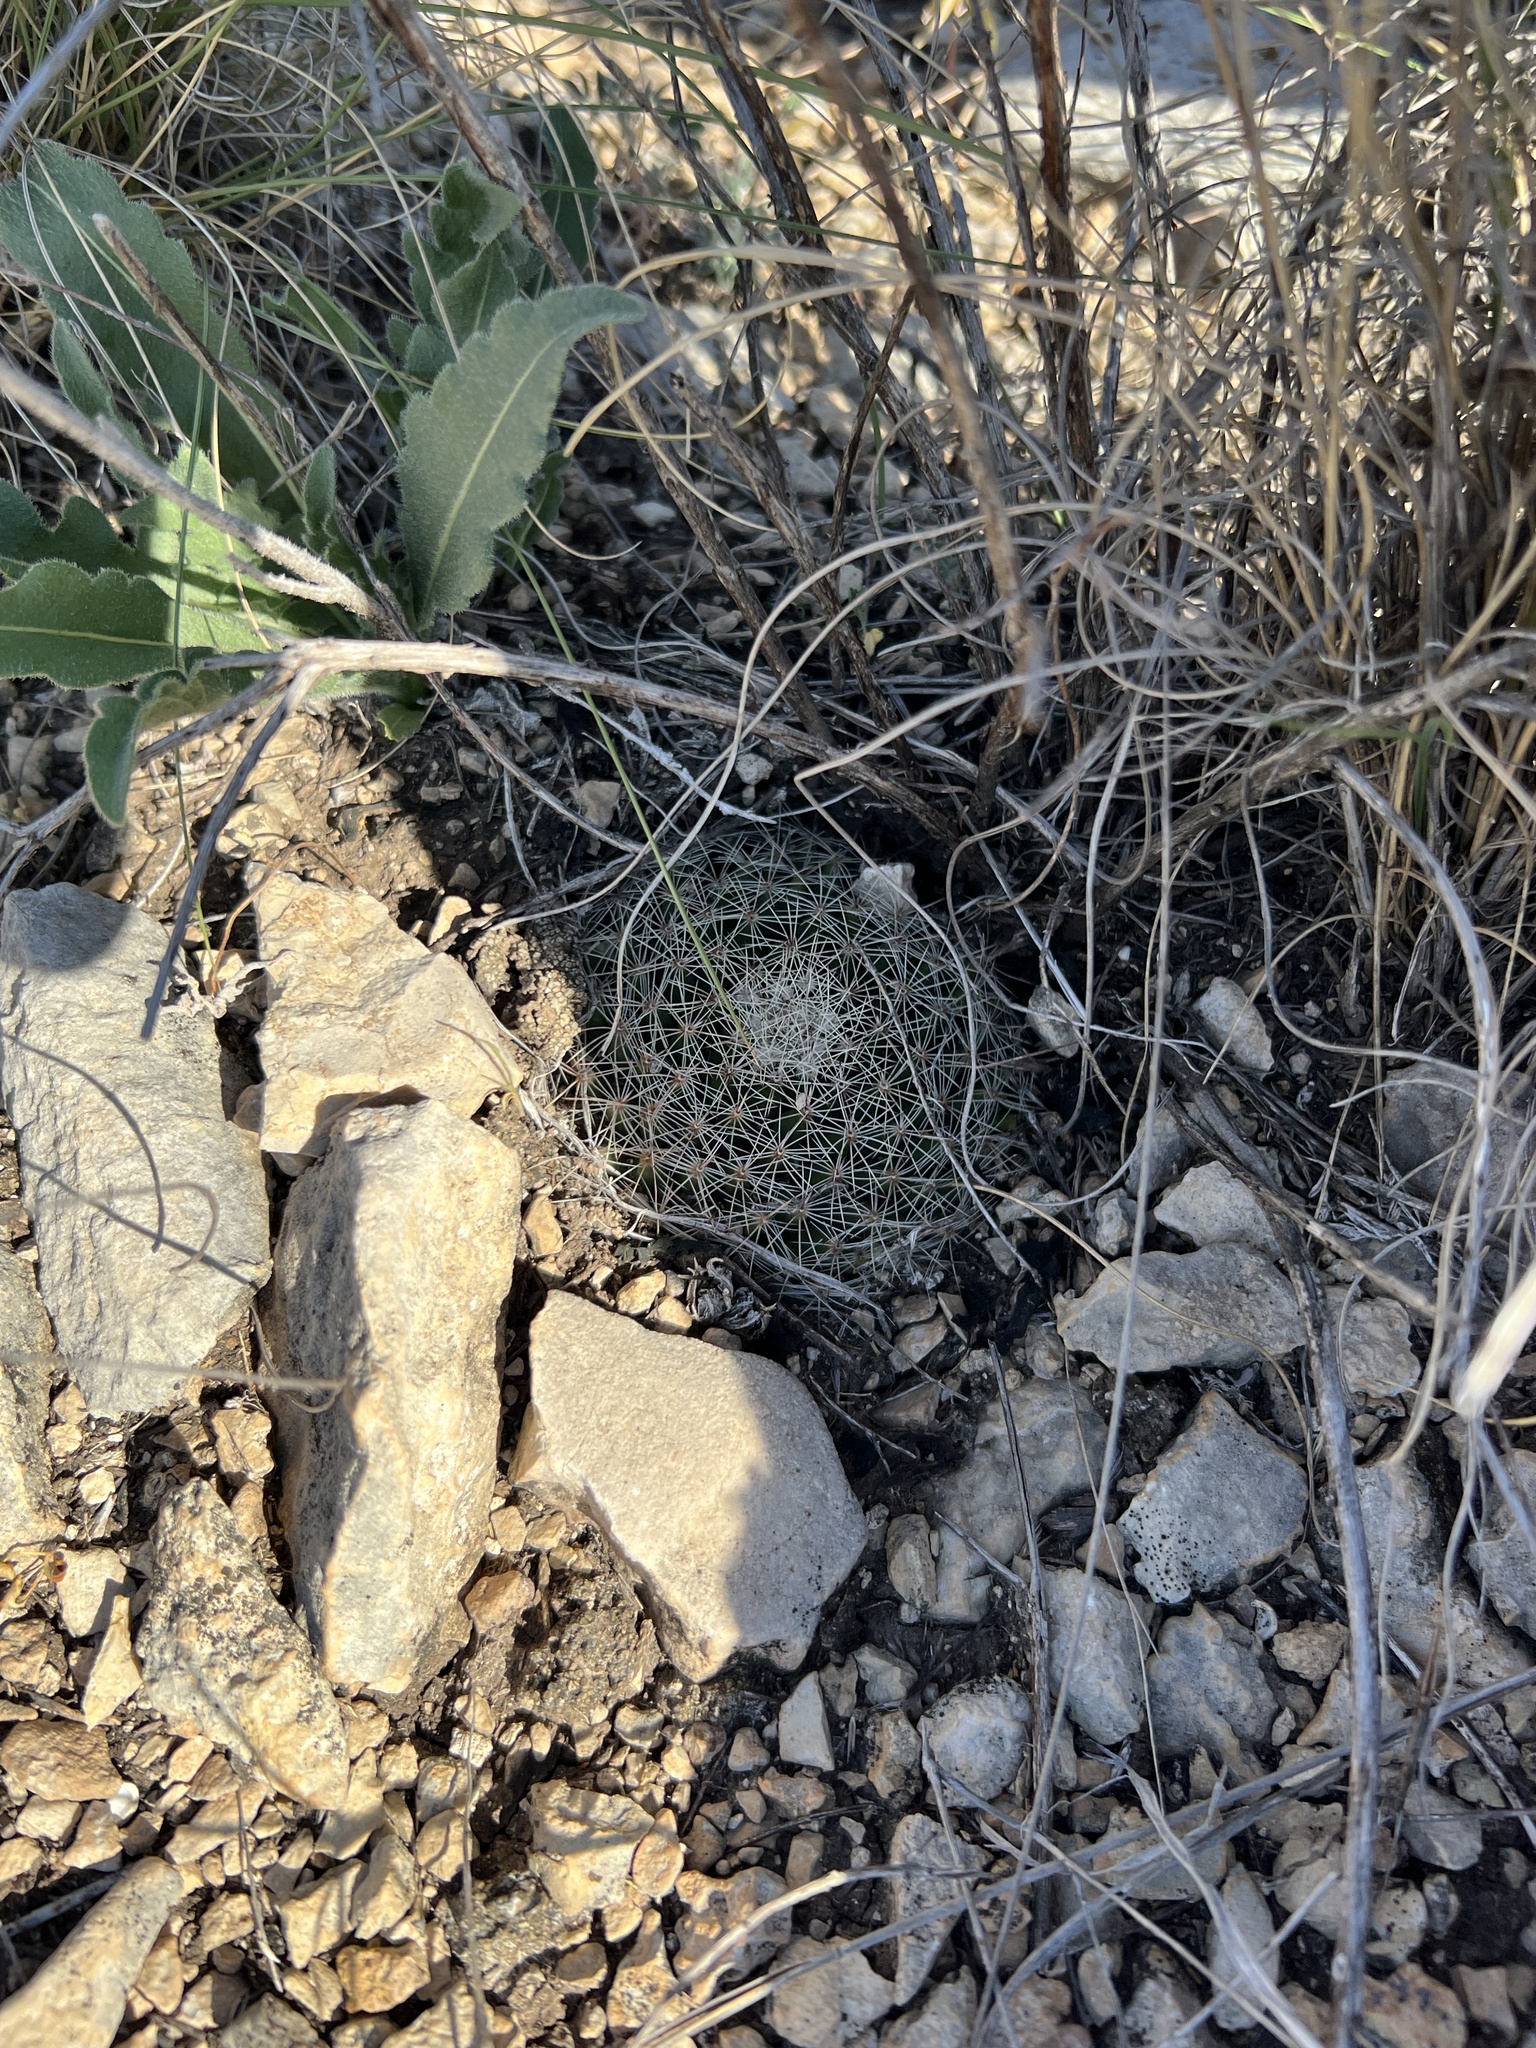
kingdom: Plantae
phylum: Tracheophyta
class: Magnoliopsida
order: Caryophyllales
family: Cactaceae
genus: Mammillaria
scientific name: Mammillaria heyderi
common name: Little nipple cactus
